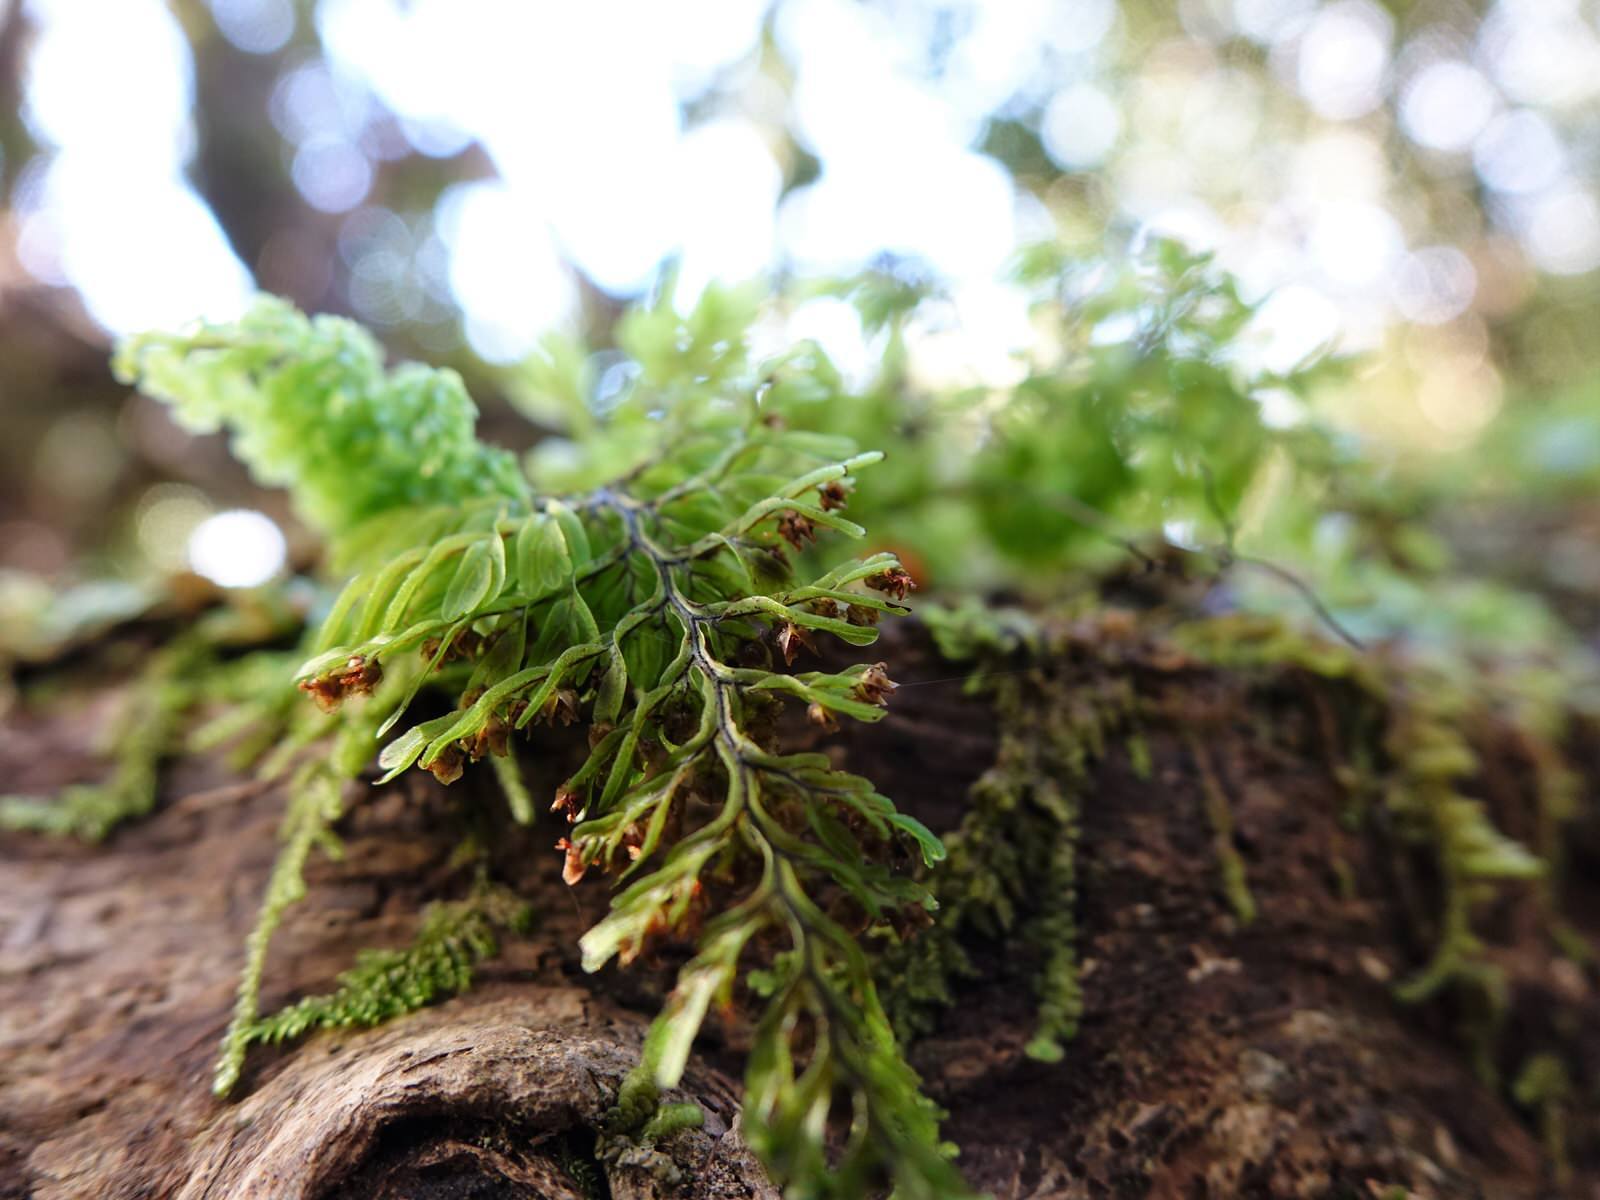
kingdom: Plantae
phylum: Tracheophyta
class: Polypodiopsida
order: Hymenophyllales
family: Hymenophyllaceae
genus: Hymenophyllum
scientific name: Hymenophyllum sanguinolentum
